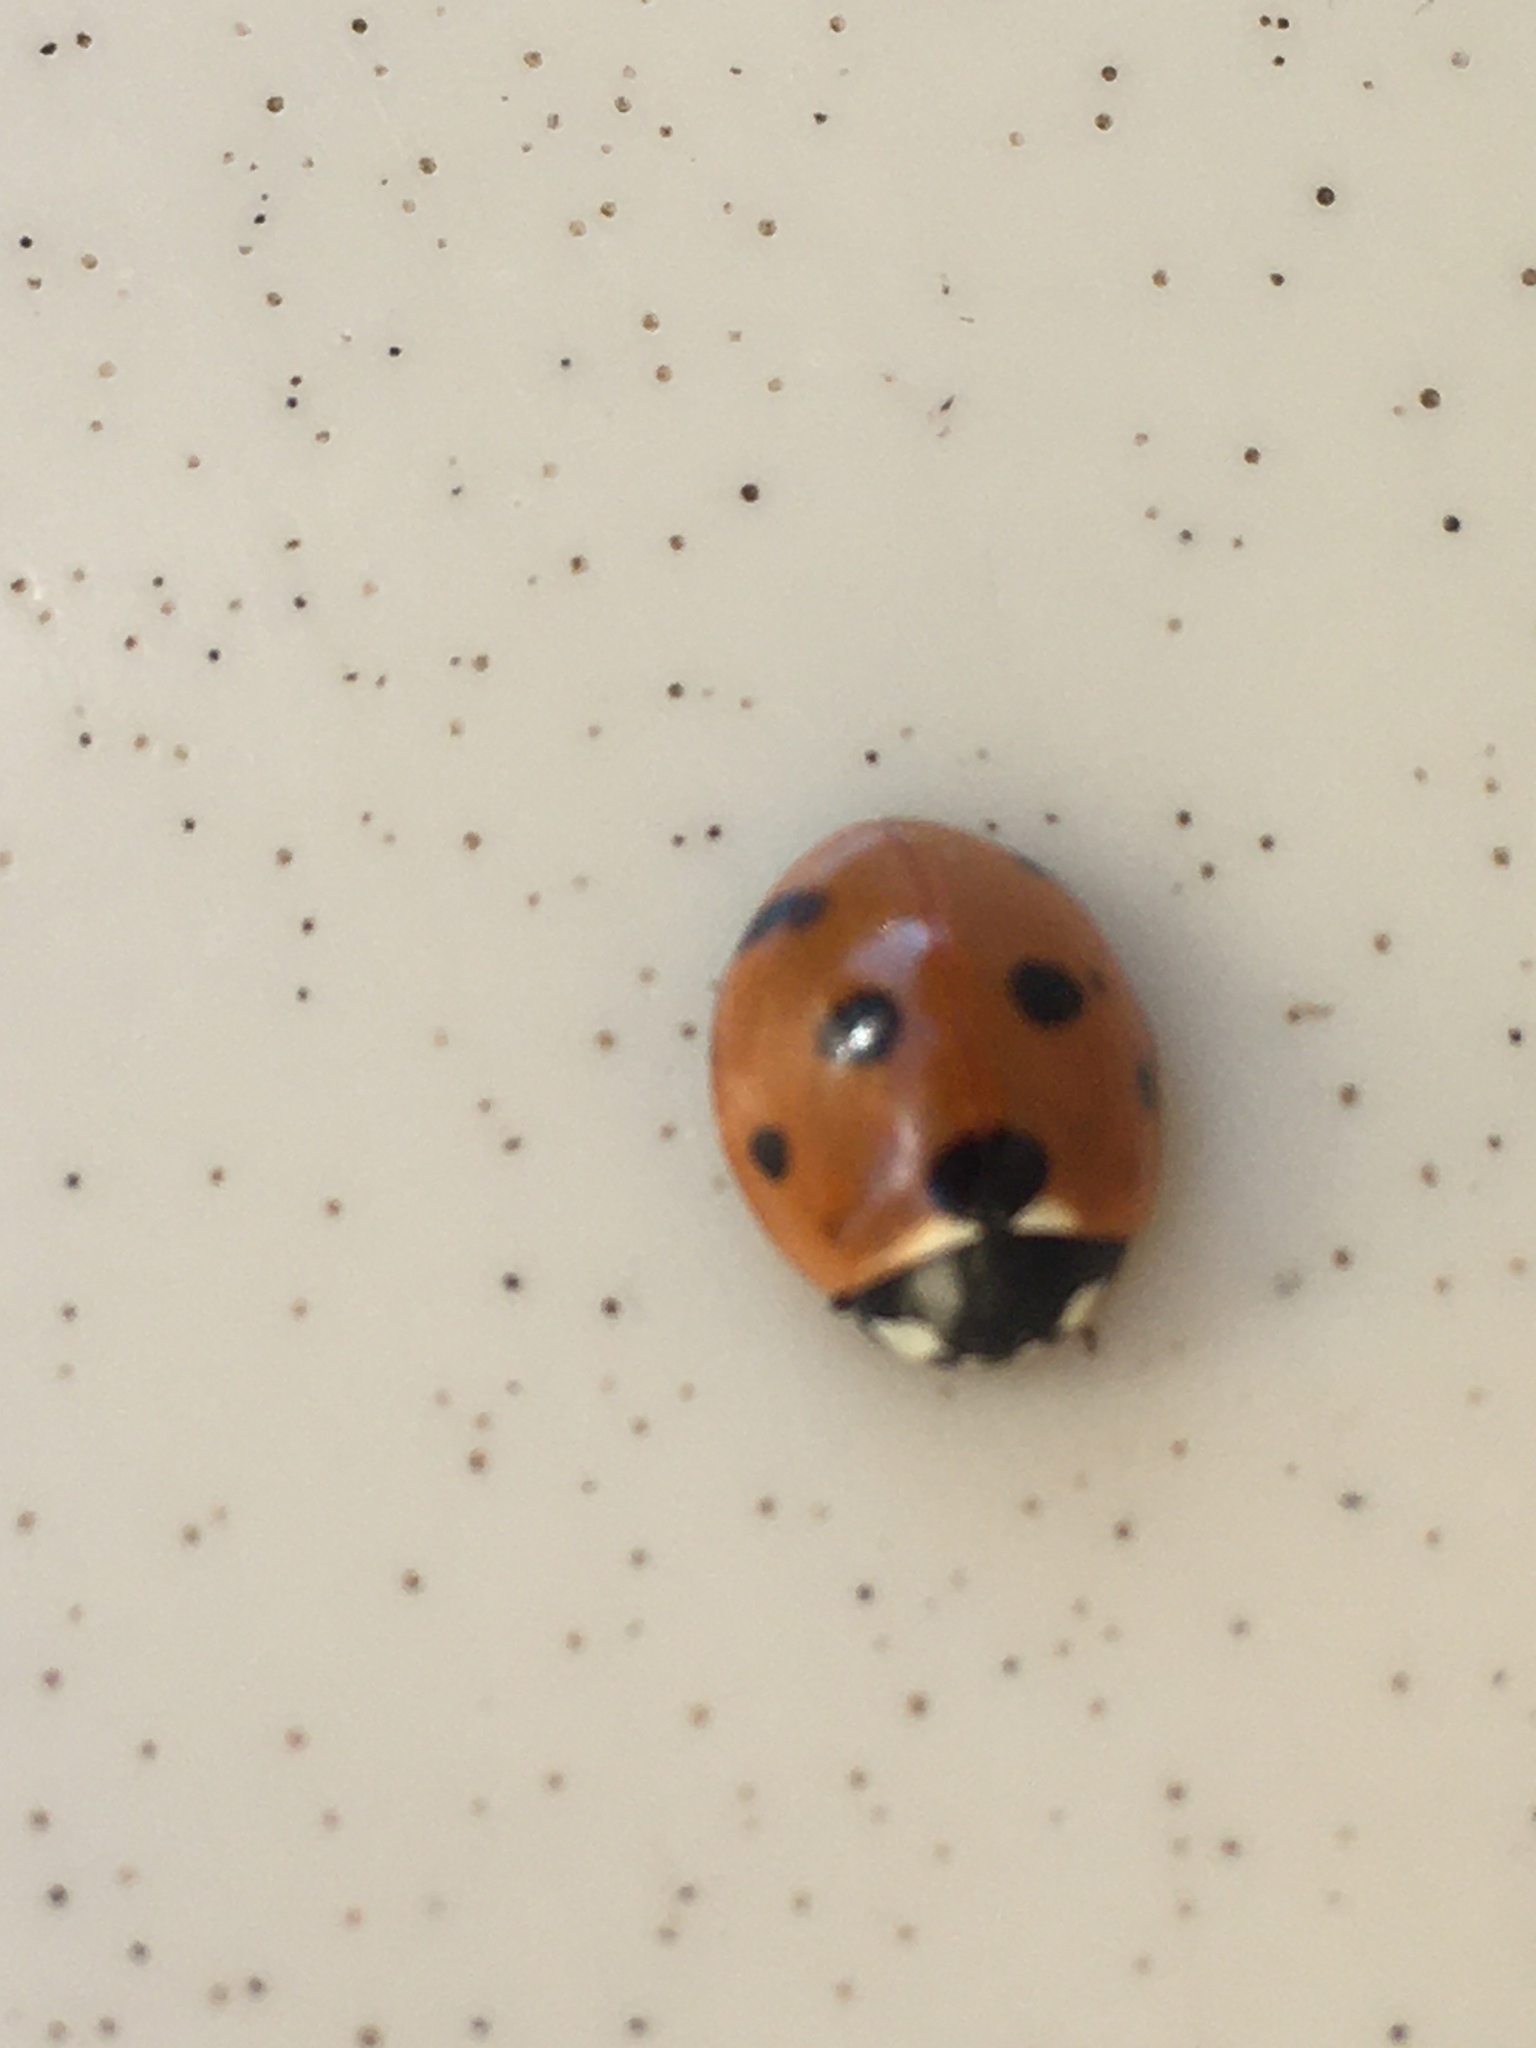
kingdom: Animalia
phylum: Arthropoda
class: Insecta
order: Coleoptera
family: Coccinellidae
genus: Coccinella
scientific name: Coccinella septempunctata
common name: Sevenspotted lady beetle
